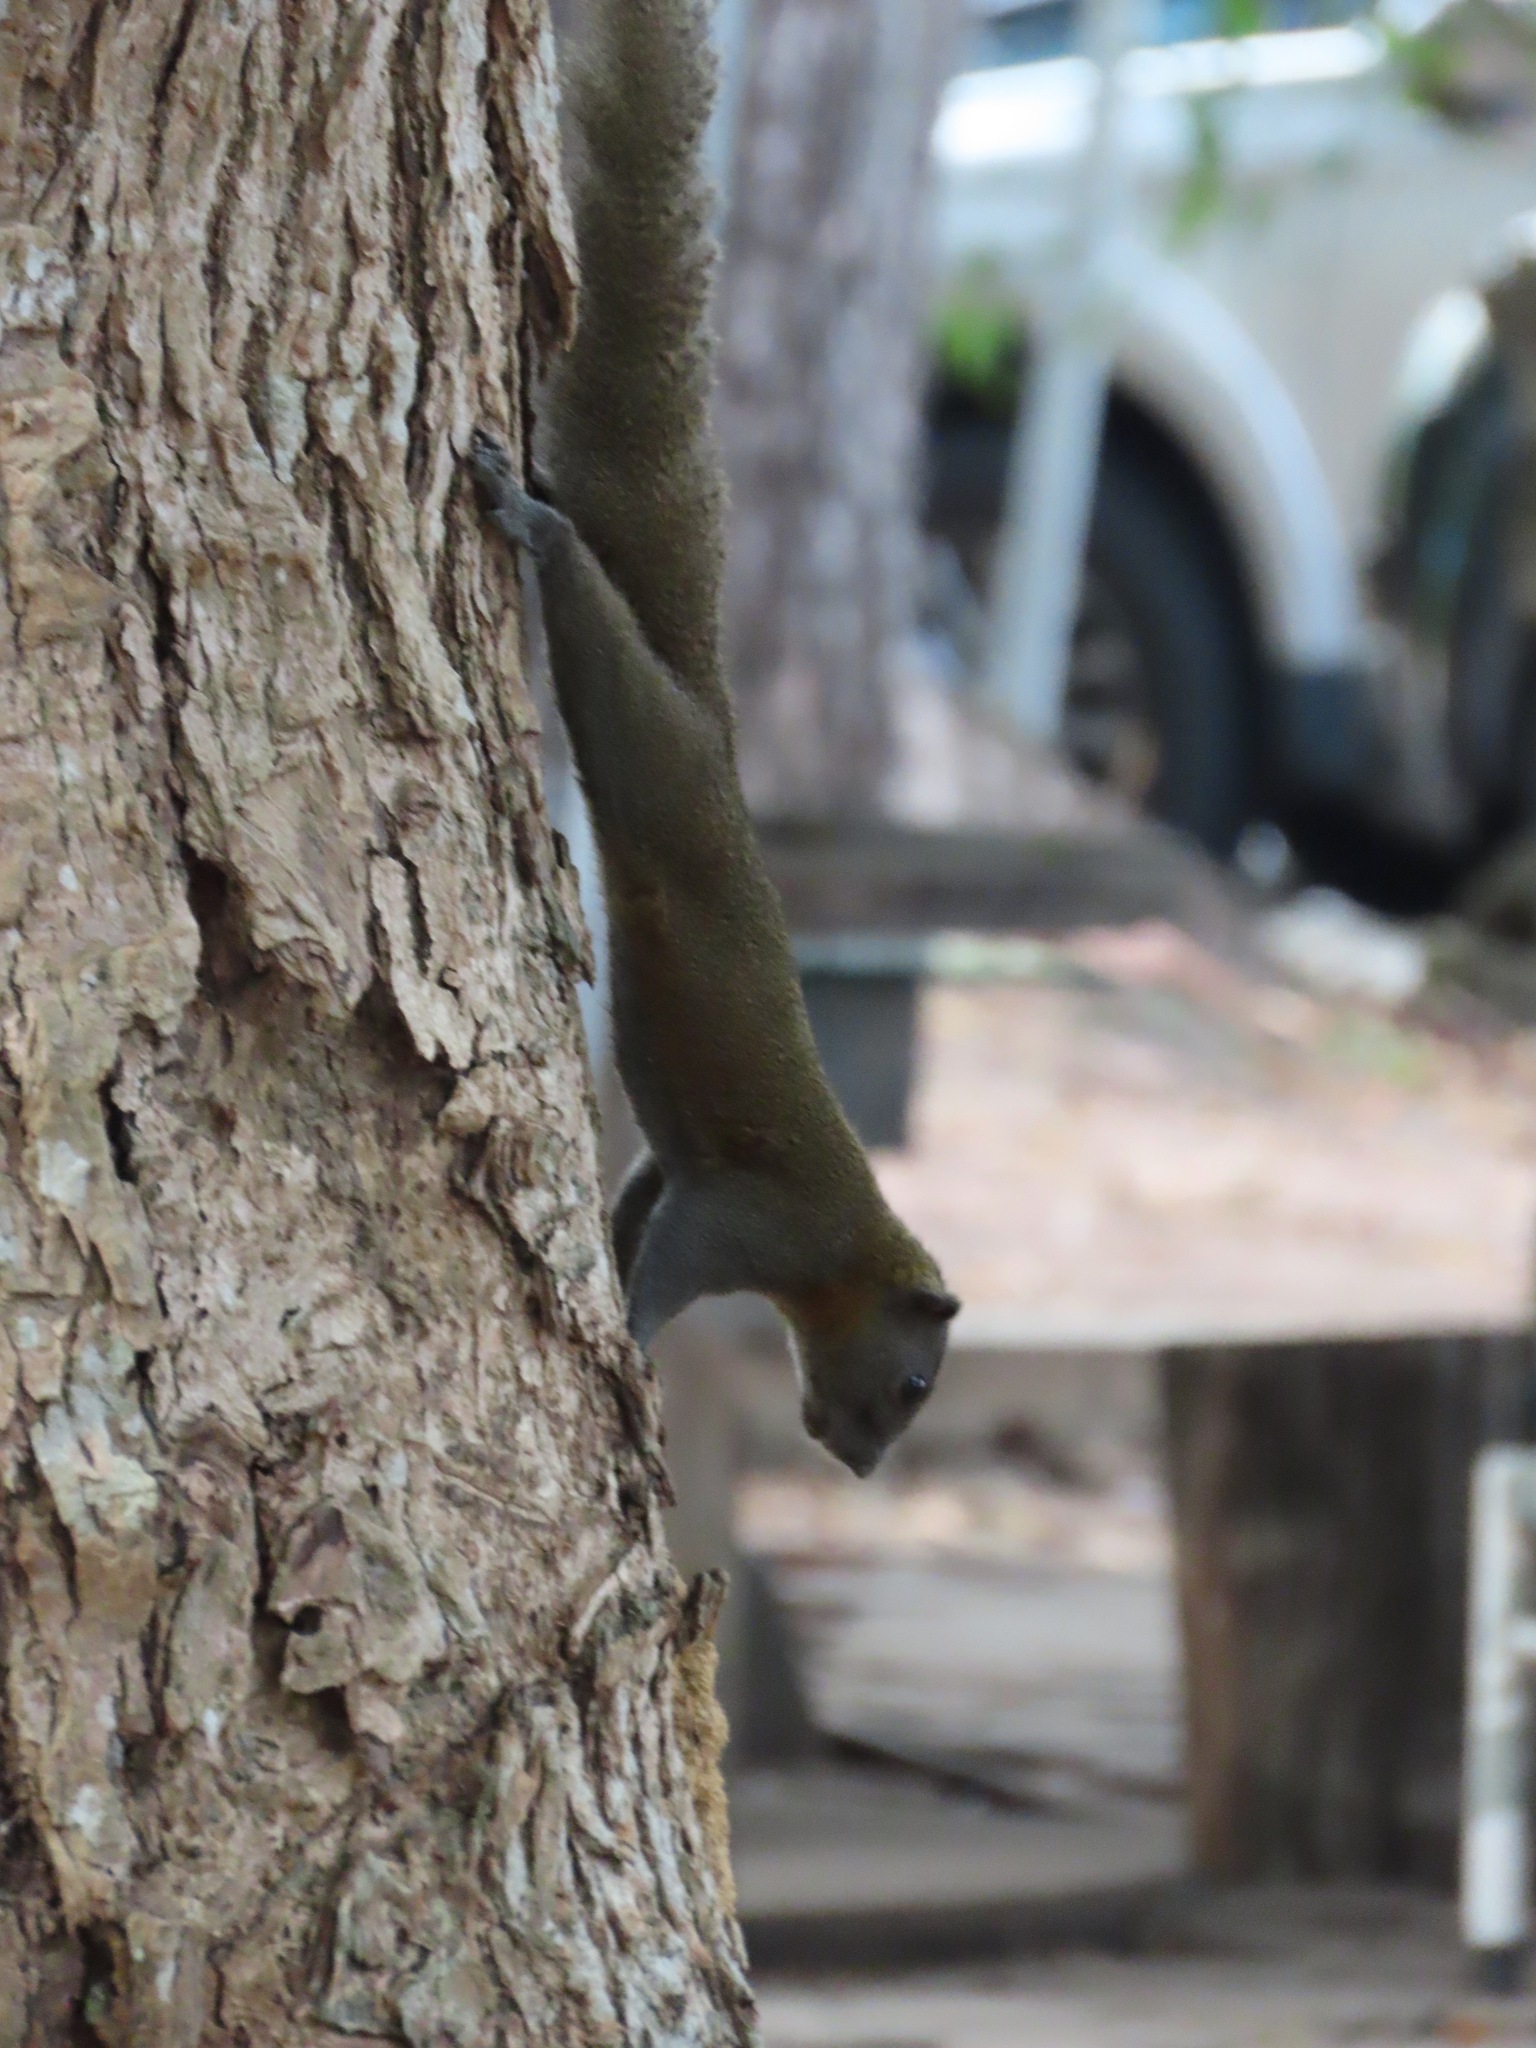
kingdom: Animalia
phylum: Chordata
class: Mammalia
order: Rodentia
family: Sciuridae
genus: Callosciurus
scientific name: Callosciurus caniceps
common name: Gray-bellied squirrel
